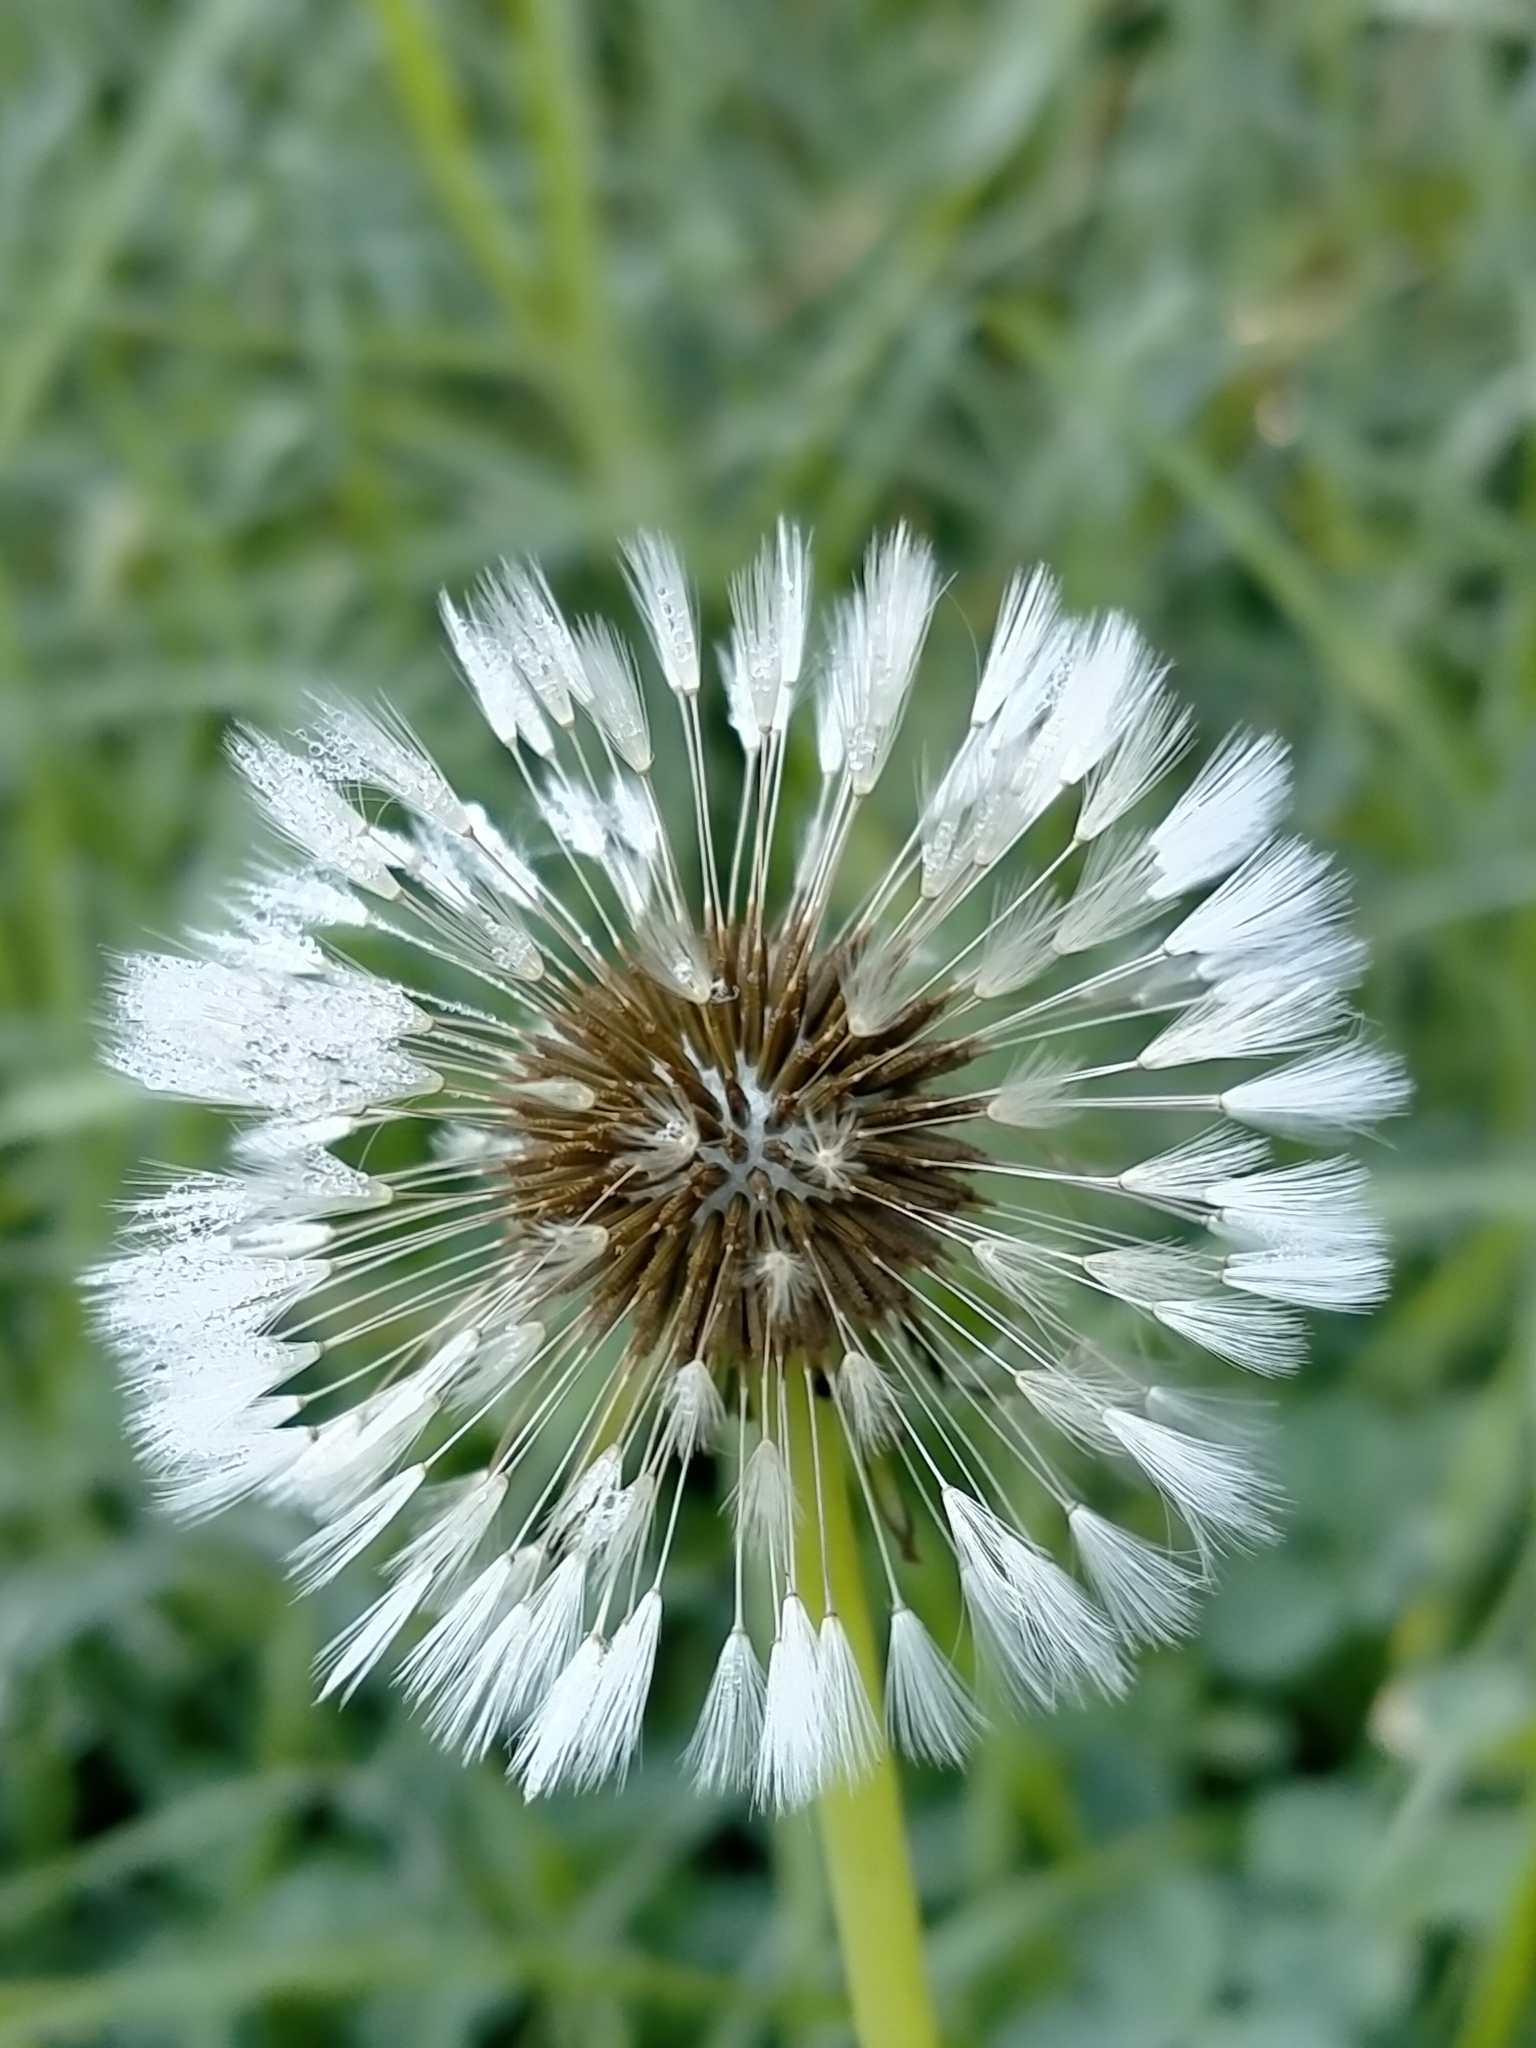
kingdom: Plantae
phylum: Tracheophyta
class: Magnoliopsida
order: Asterales
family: Asteraceae
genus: Taraxacum
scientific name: Taraxacum officinale
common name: Common dandelion
